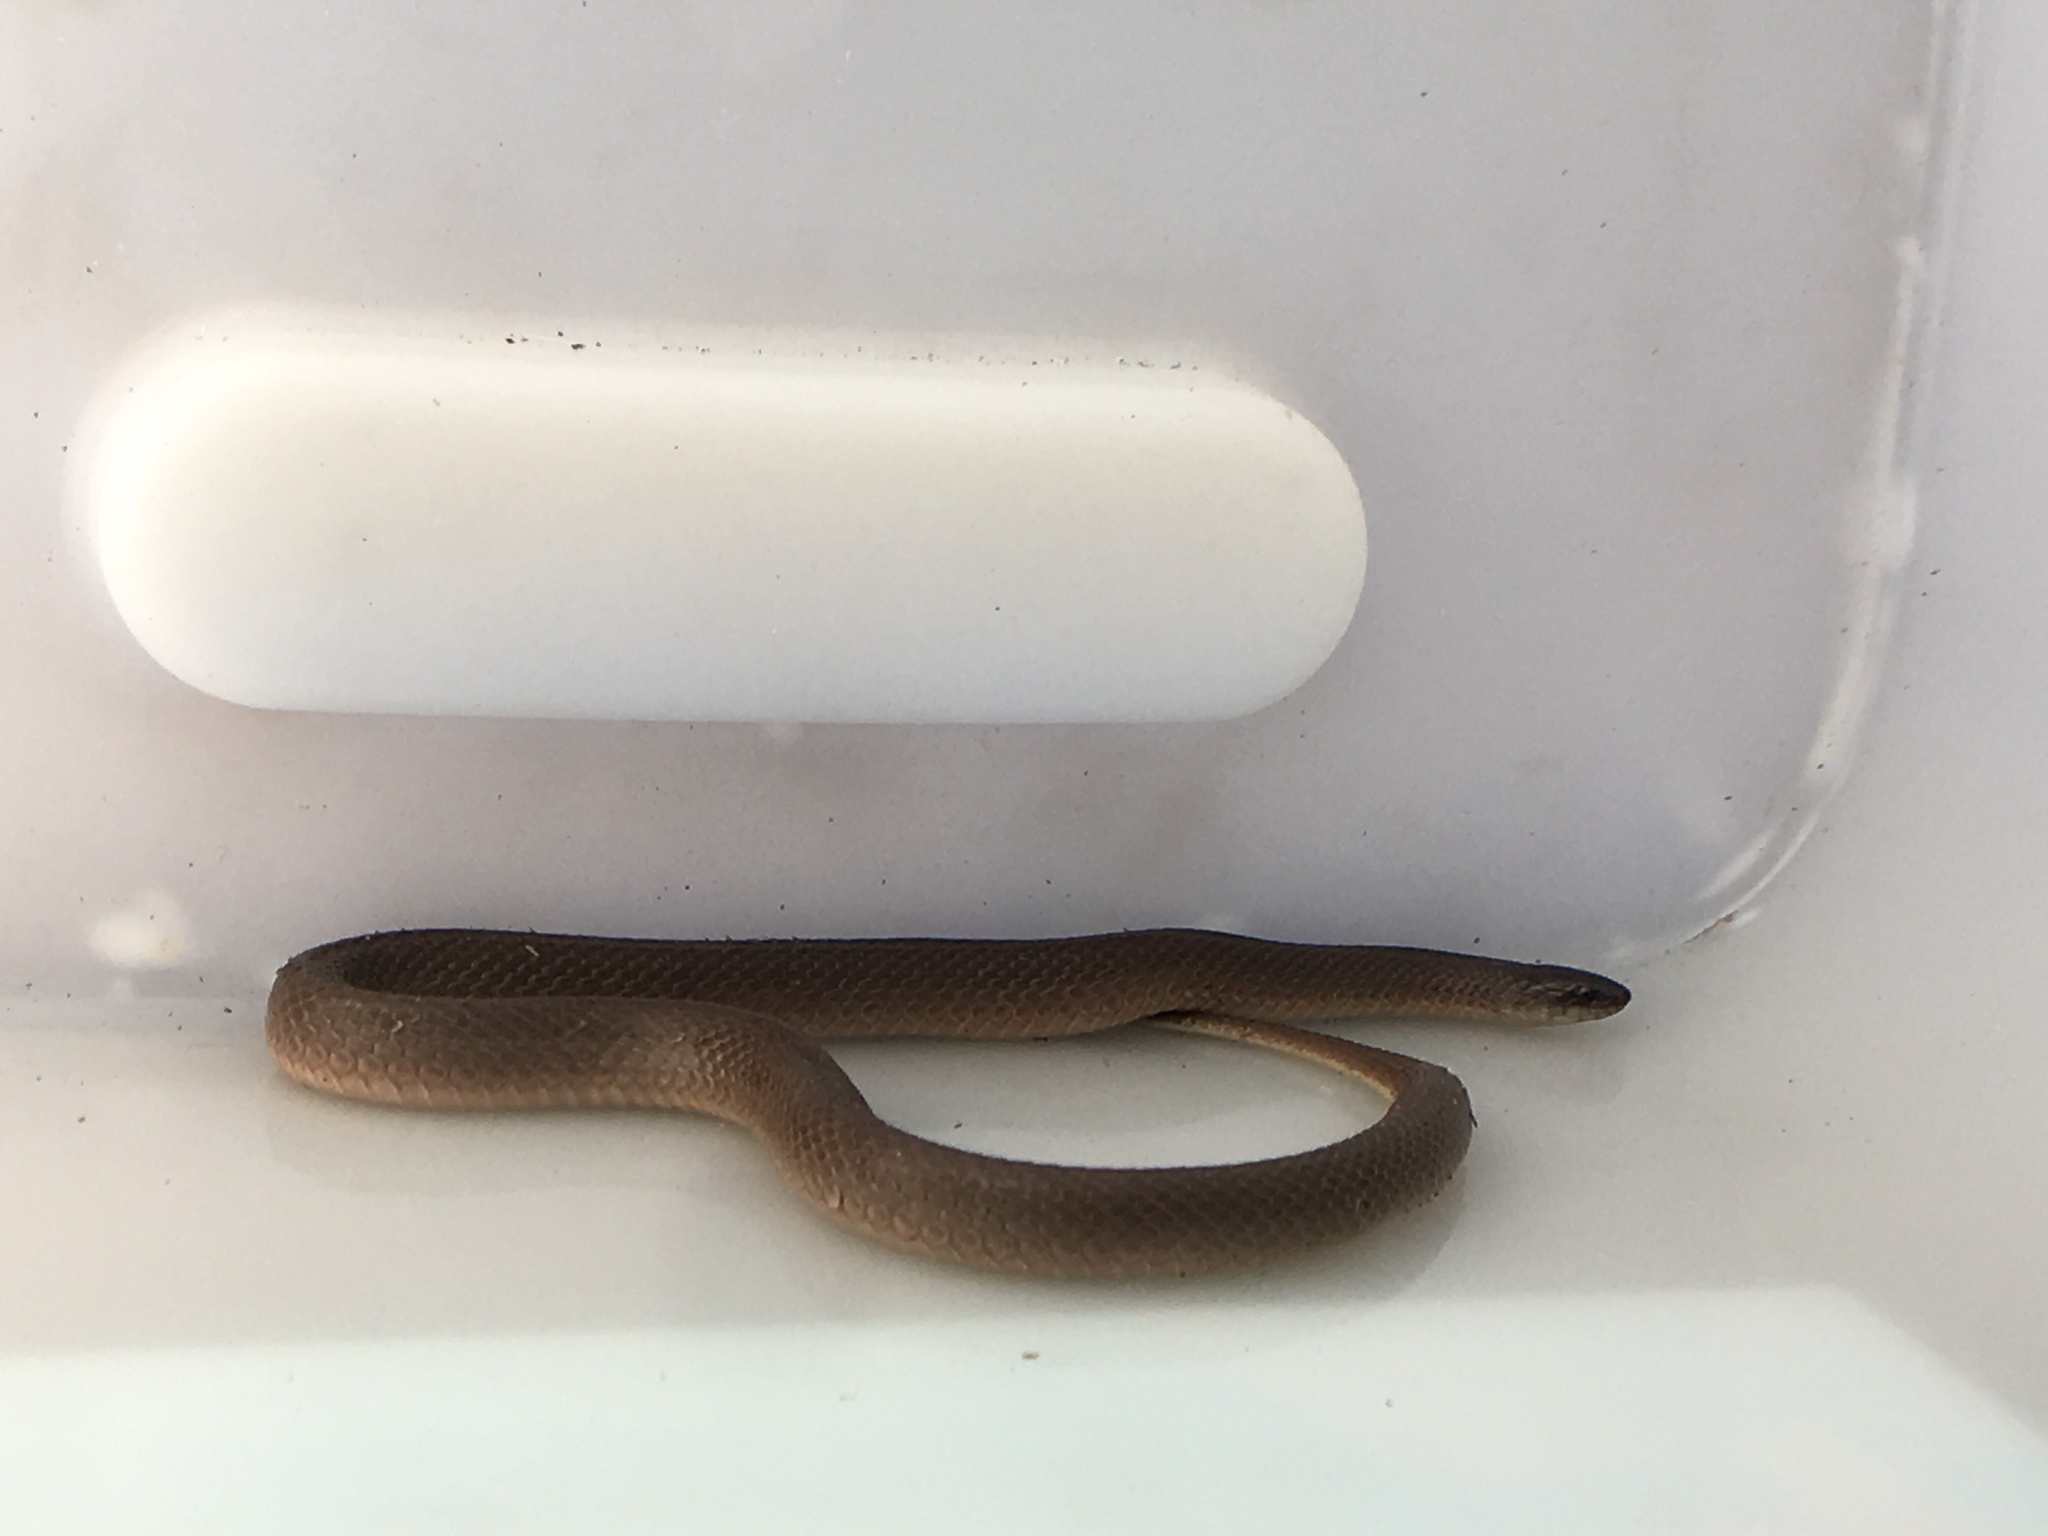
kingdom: Animalia
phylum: Chordata
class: Squamata
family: Colubridae
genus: Haldea
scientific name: Haldea striatula
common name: Rough earth snake
